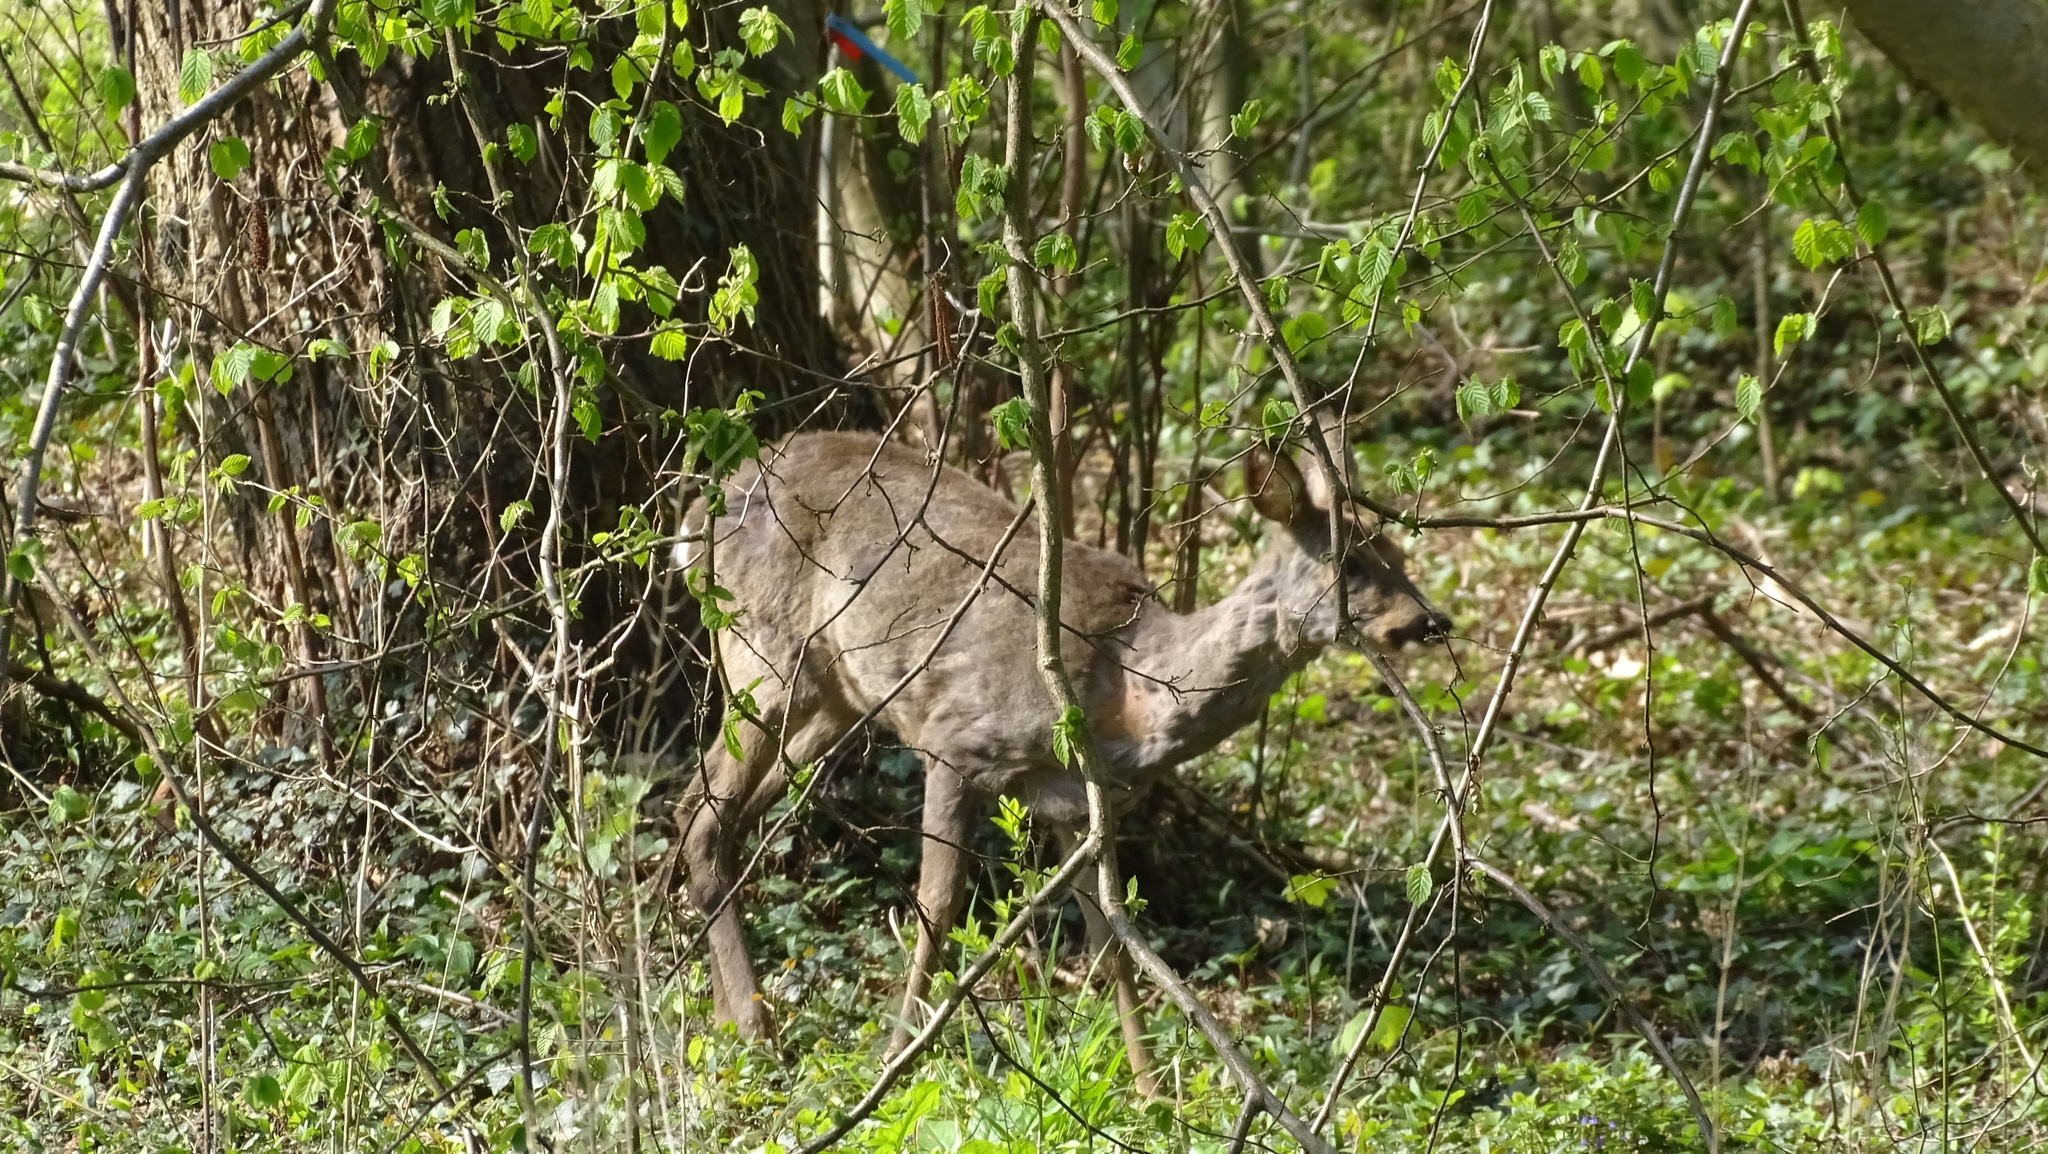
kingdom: Animalia
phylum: Chordata
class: Mammalia
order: Artiodactyla
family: Cervidae
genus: Capreolus
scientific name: Capreolus capreolus
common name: Western roe deer
